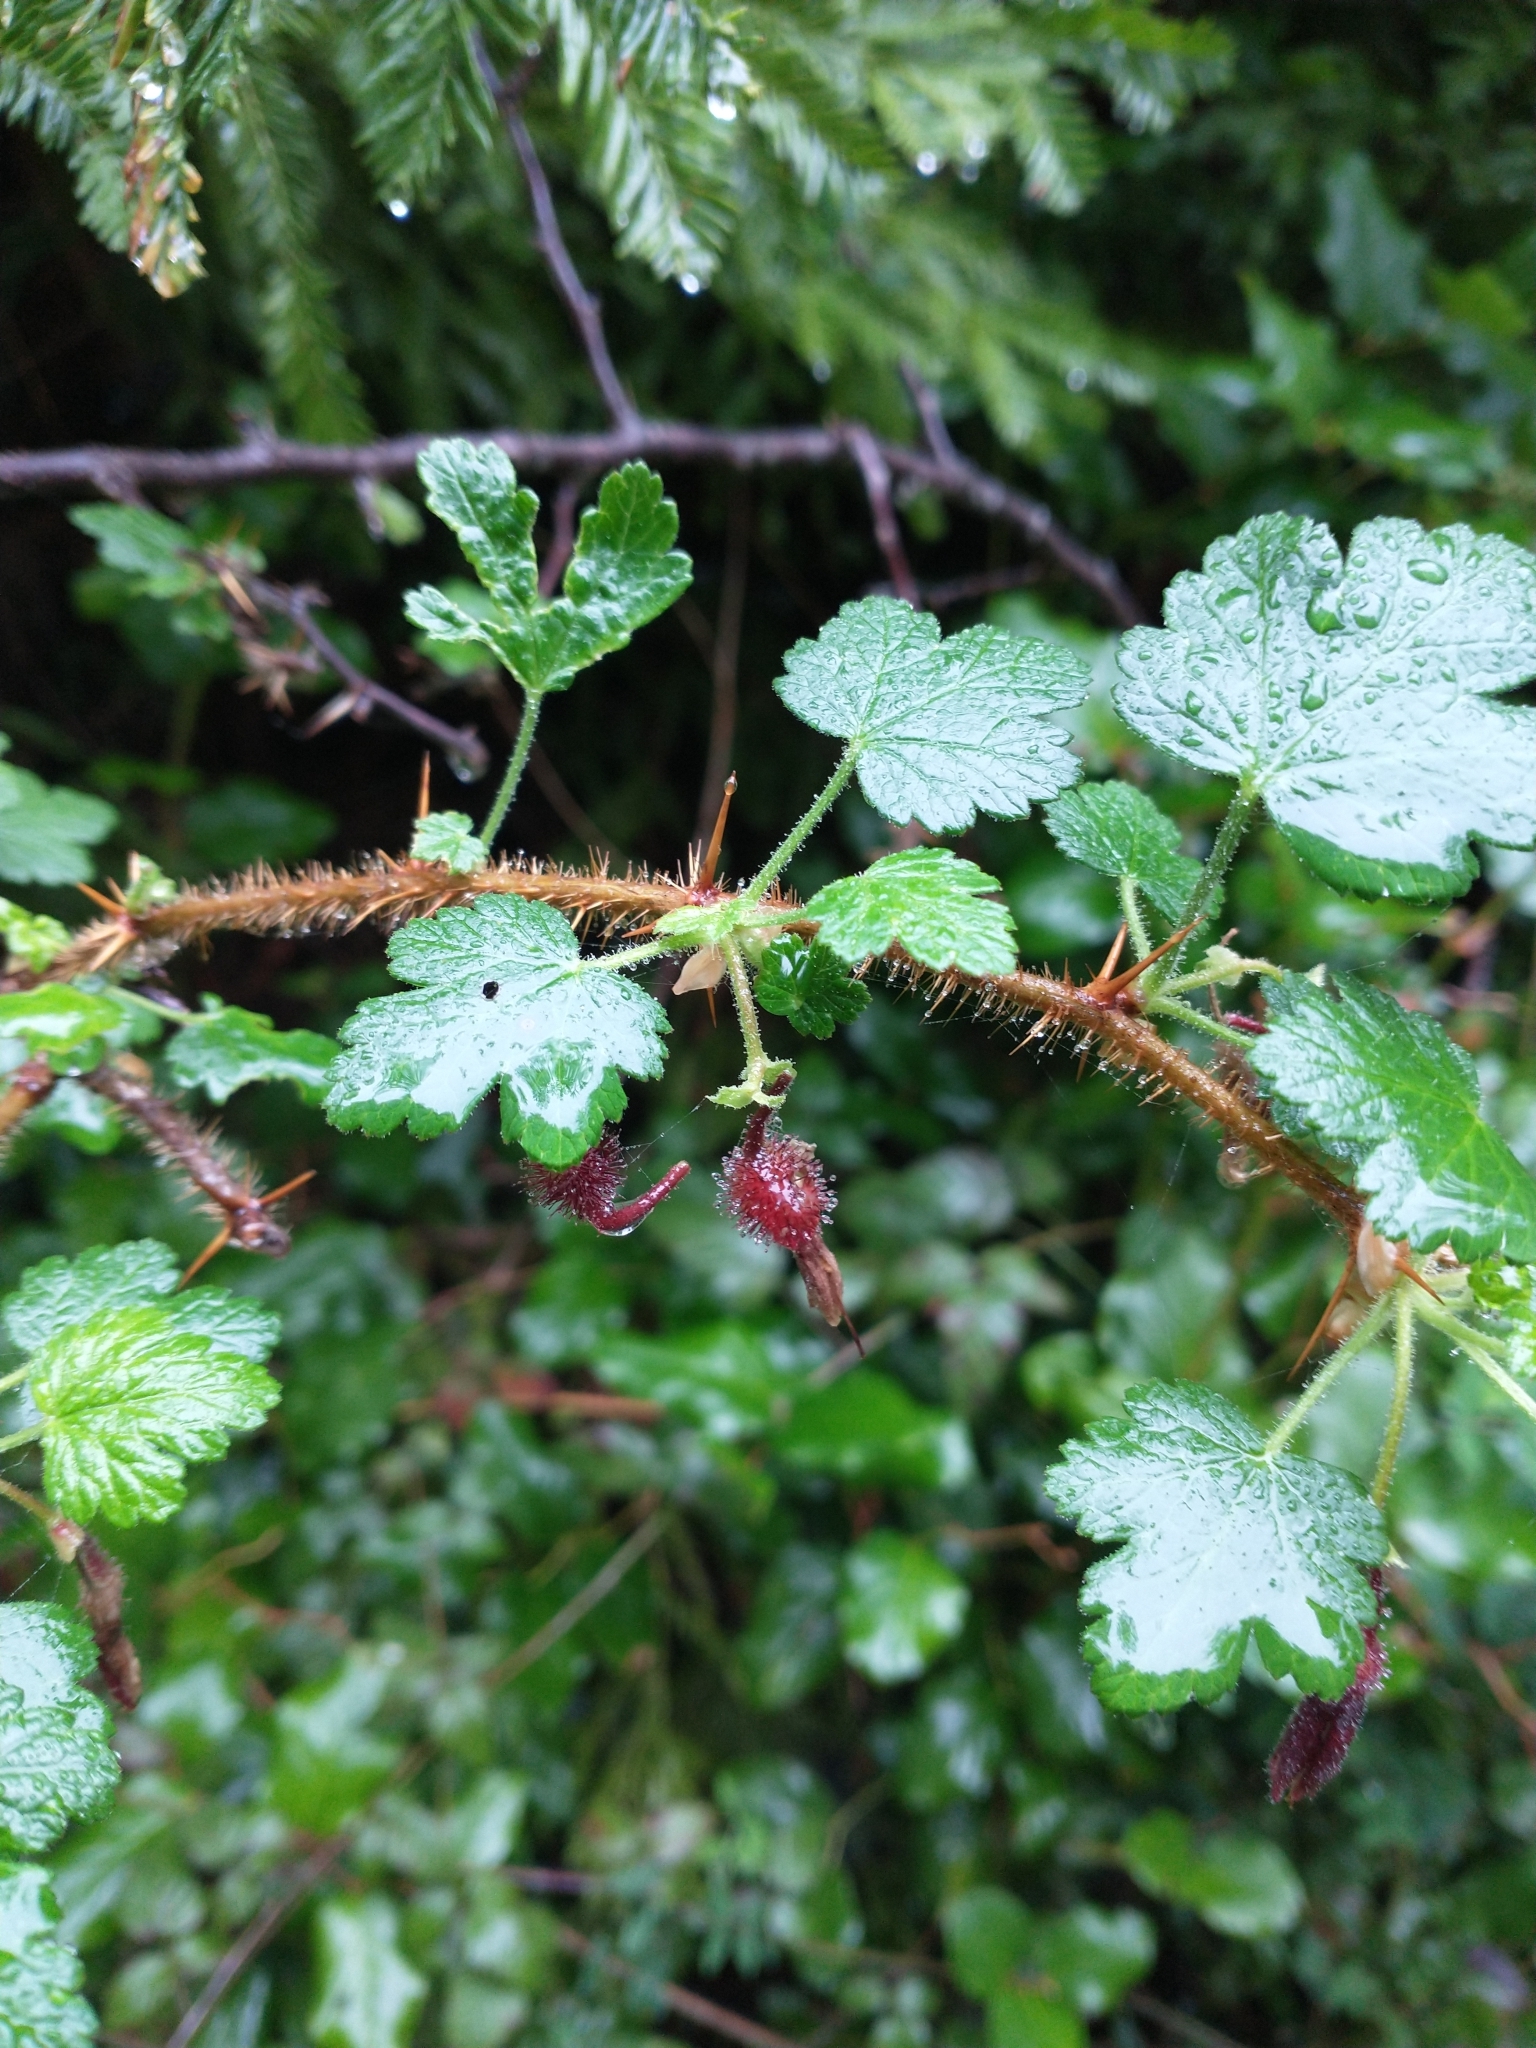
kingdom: Plantae
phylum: Tracheophyta
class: Magnoliopsida
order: Saxifragales
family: Grossulariaceae
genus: Ribes
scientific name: Ribes menziesii
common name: Canyon gooseberry
